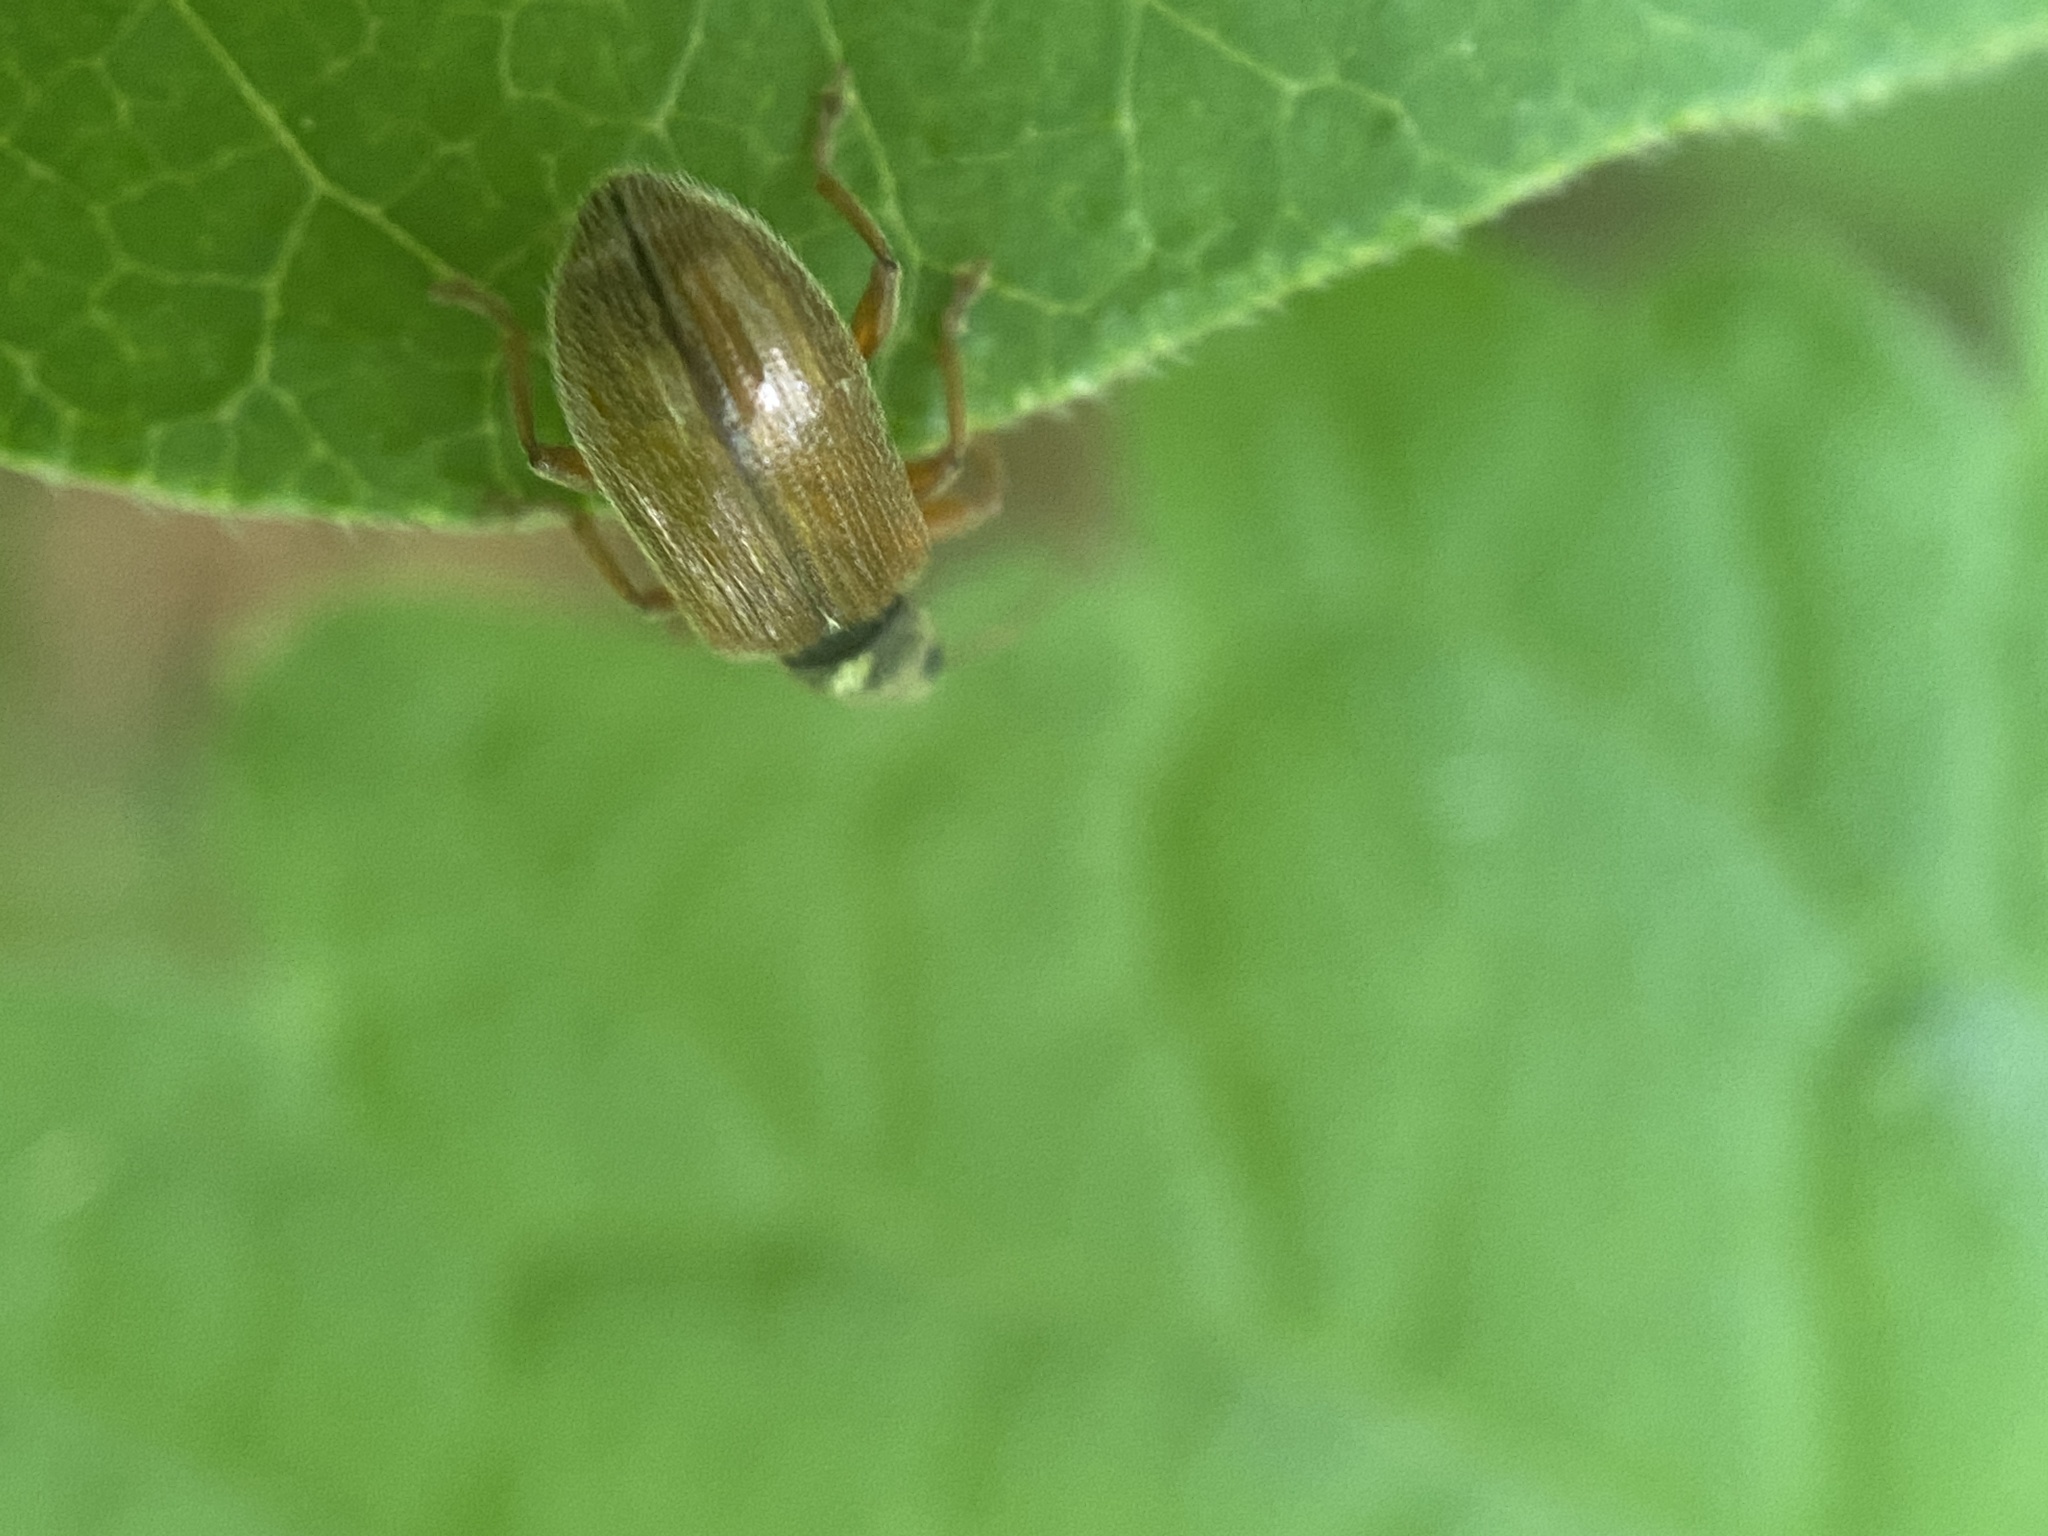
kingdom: Animalia
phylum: Arthropoda
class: Insecta
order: Coleoptera
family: Curculionidae
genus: Phyllobius
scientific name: Phyllobius oblongus
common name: Brown leaf weevil
